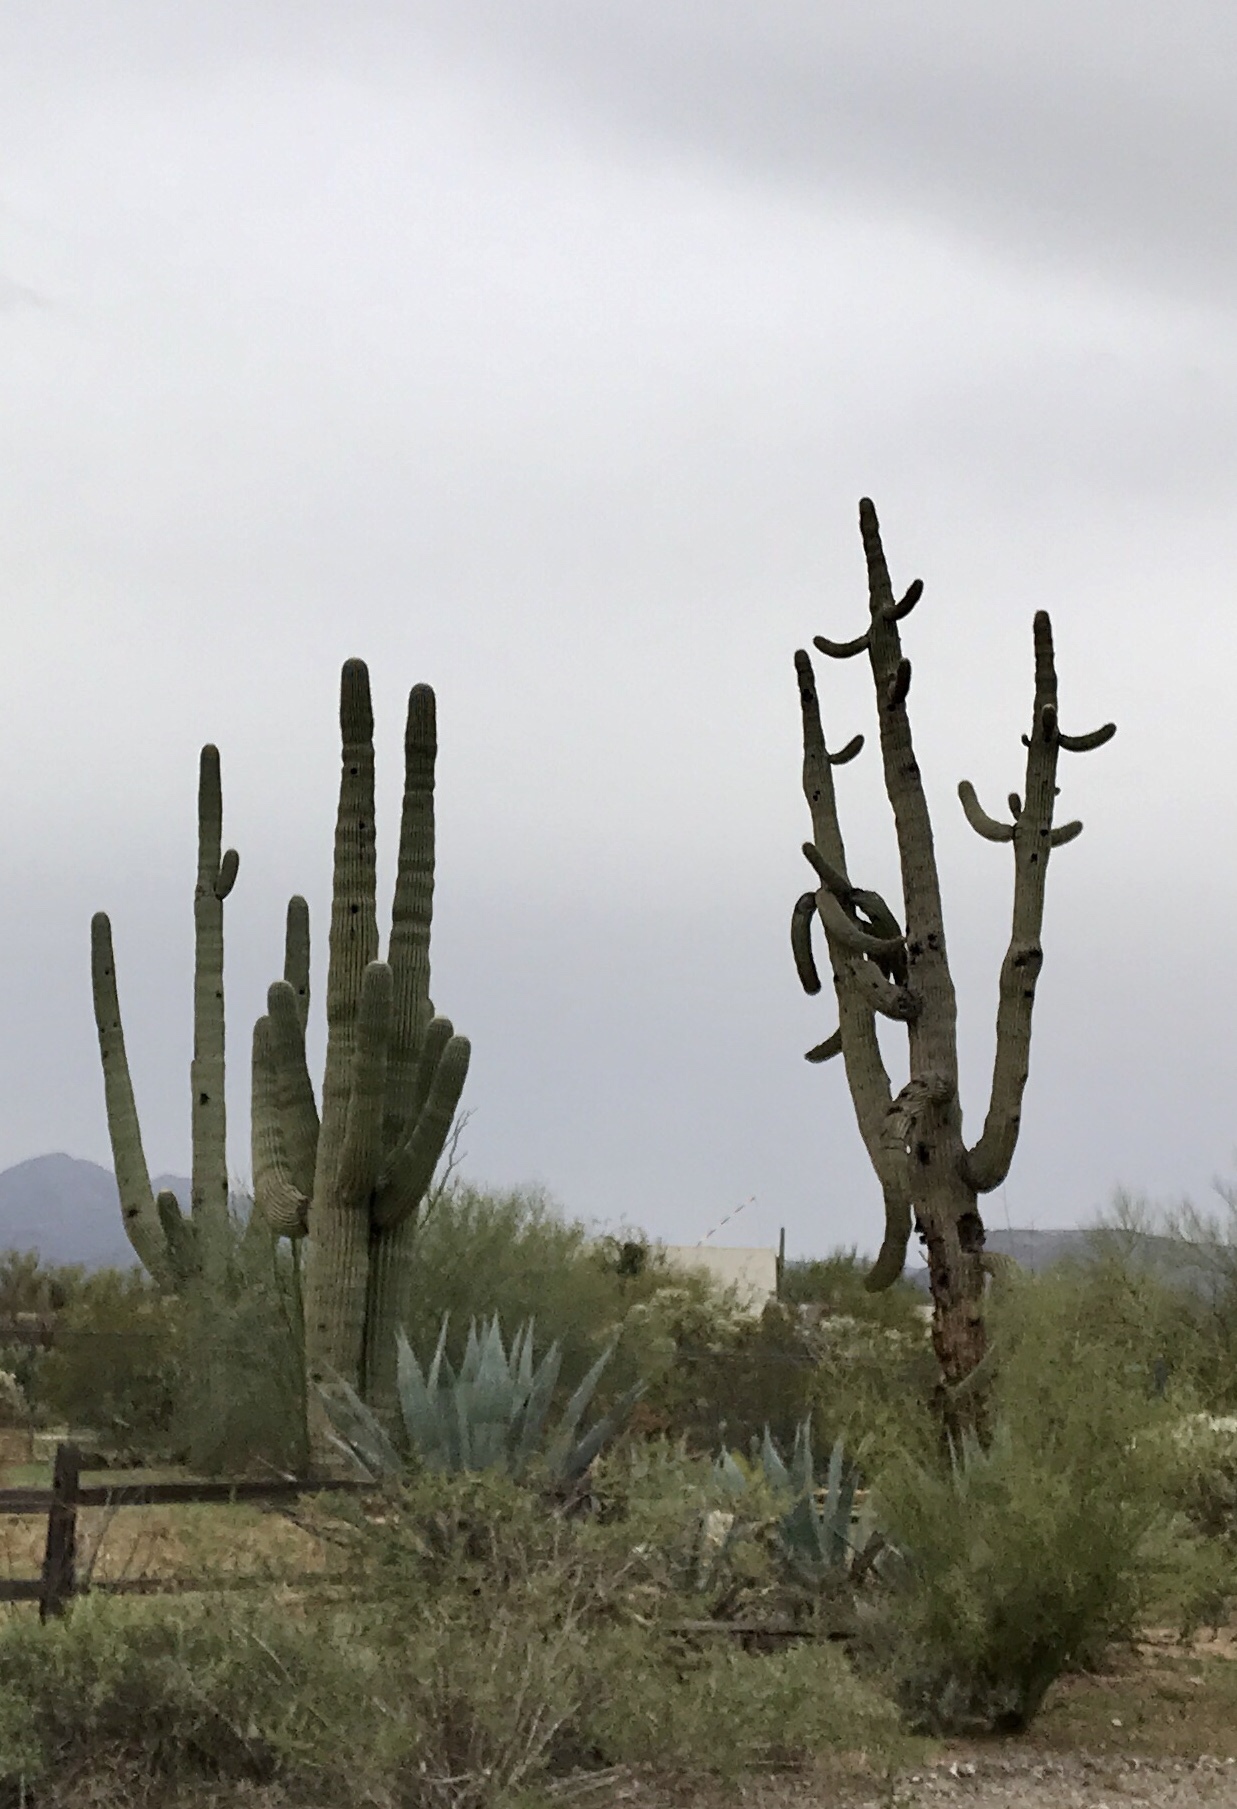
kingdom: Plantae
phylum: Tracheophyta
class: Magnoliopsida
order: Caryophyllales
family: Cactaceae
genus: Carnegiea
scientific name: Carnegiea gigantea
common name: Saguaro
